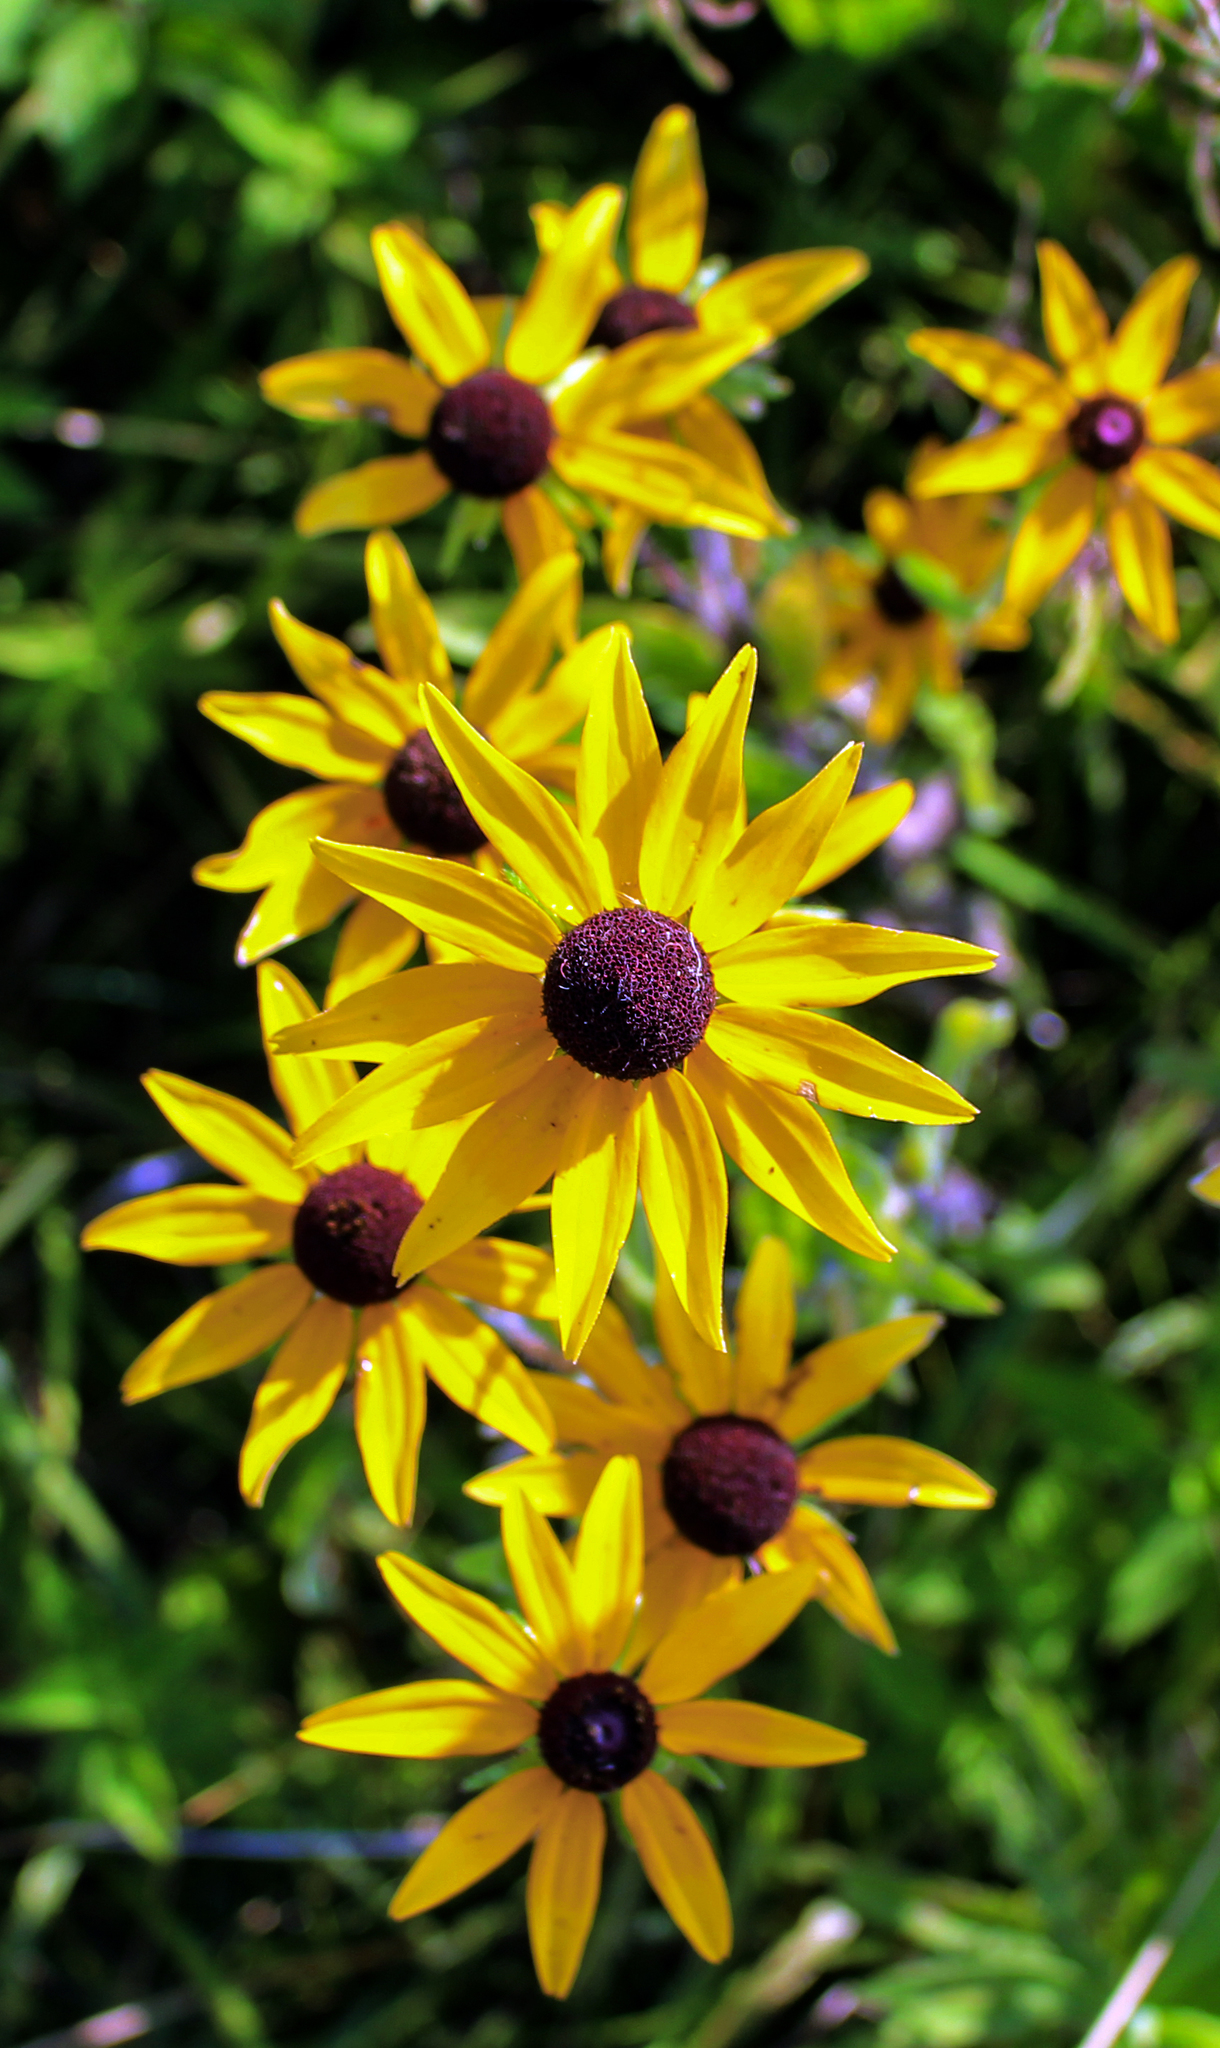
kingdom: Plantae
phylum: Tracheophyta
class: Magnoliopsida
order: Asterales
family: Asteraceae
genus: Rudbeckia
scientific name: Rudbeckia hirta
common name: Black-eyed-susan
